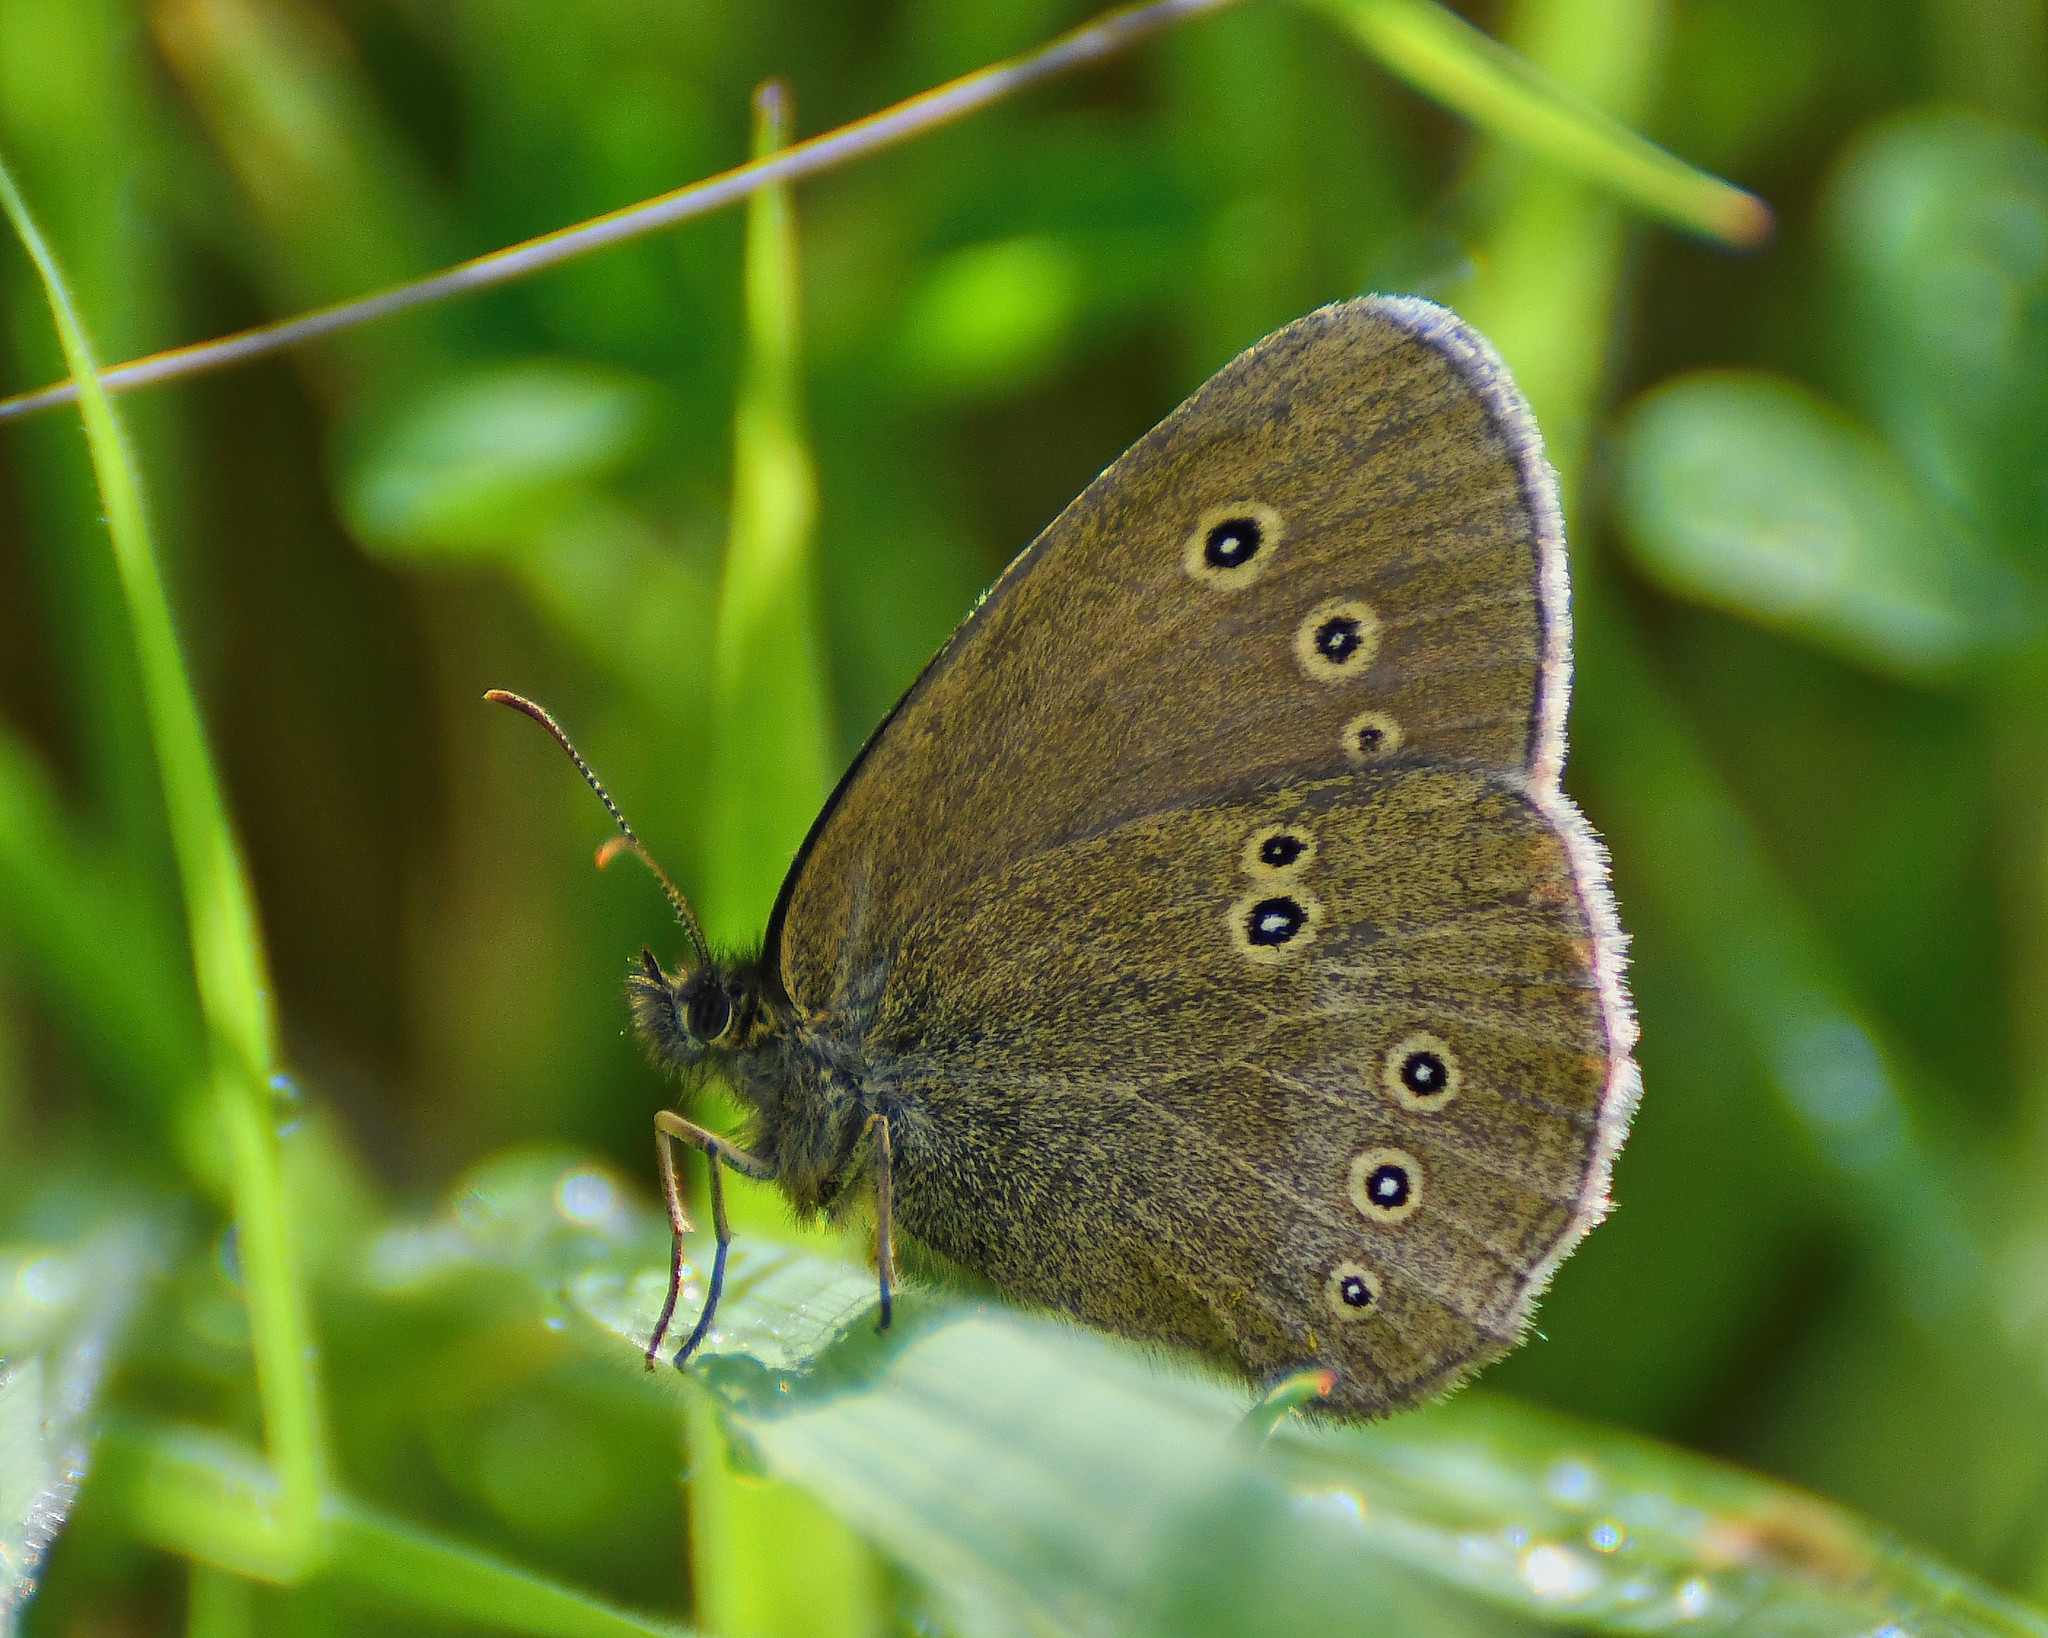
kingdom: Animalia
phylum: Arthropoda
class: Insecta
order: Lepidoptera
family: Nymphalidae
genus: Aphantopus
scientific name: Aphantopus hyperantus
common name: Ringlet
